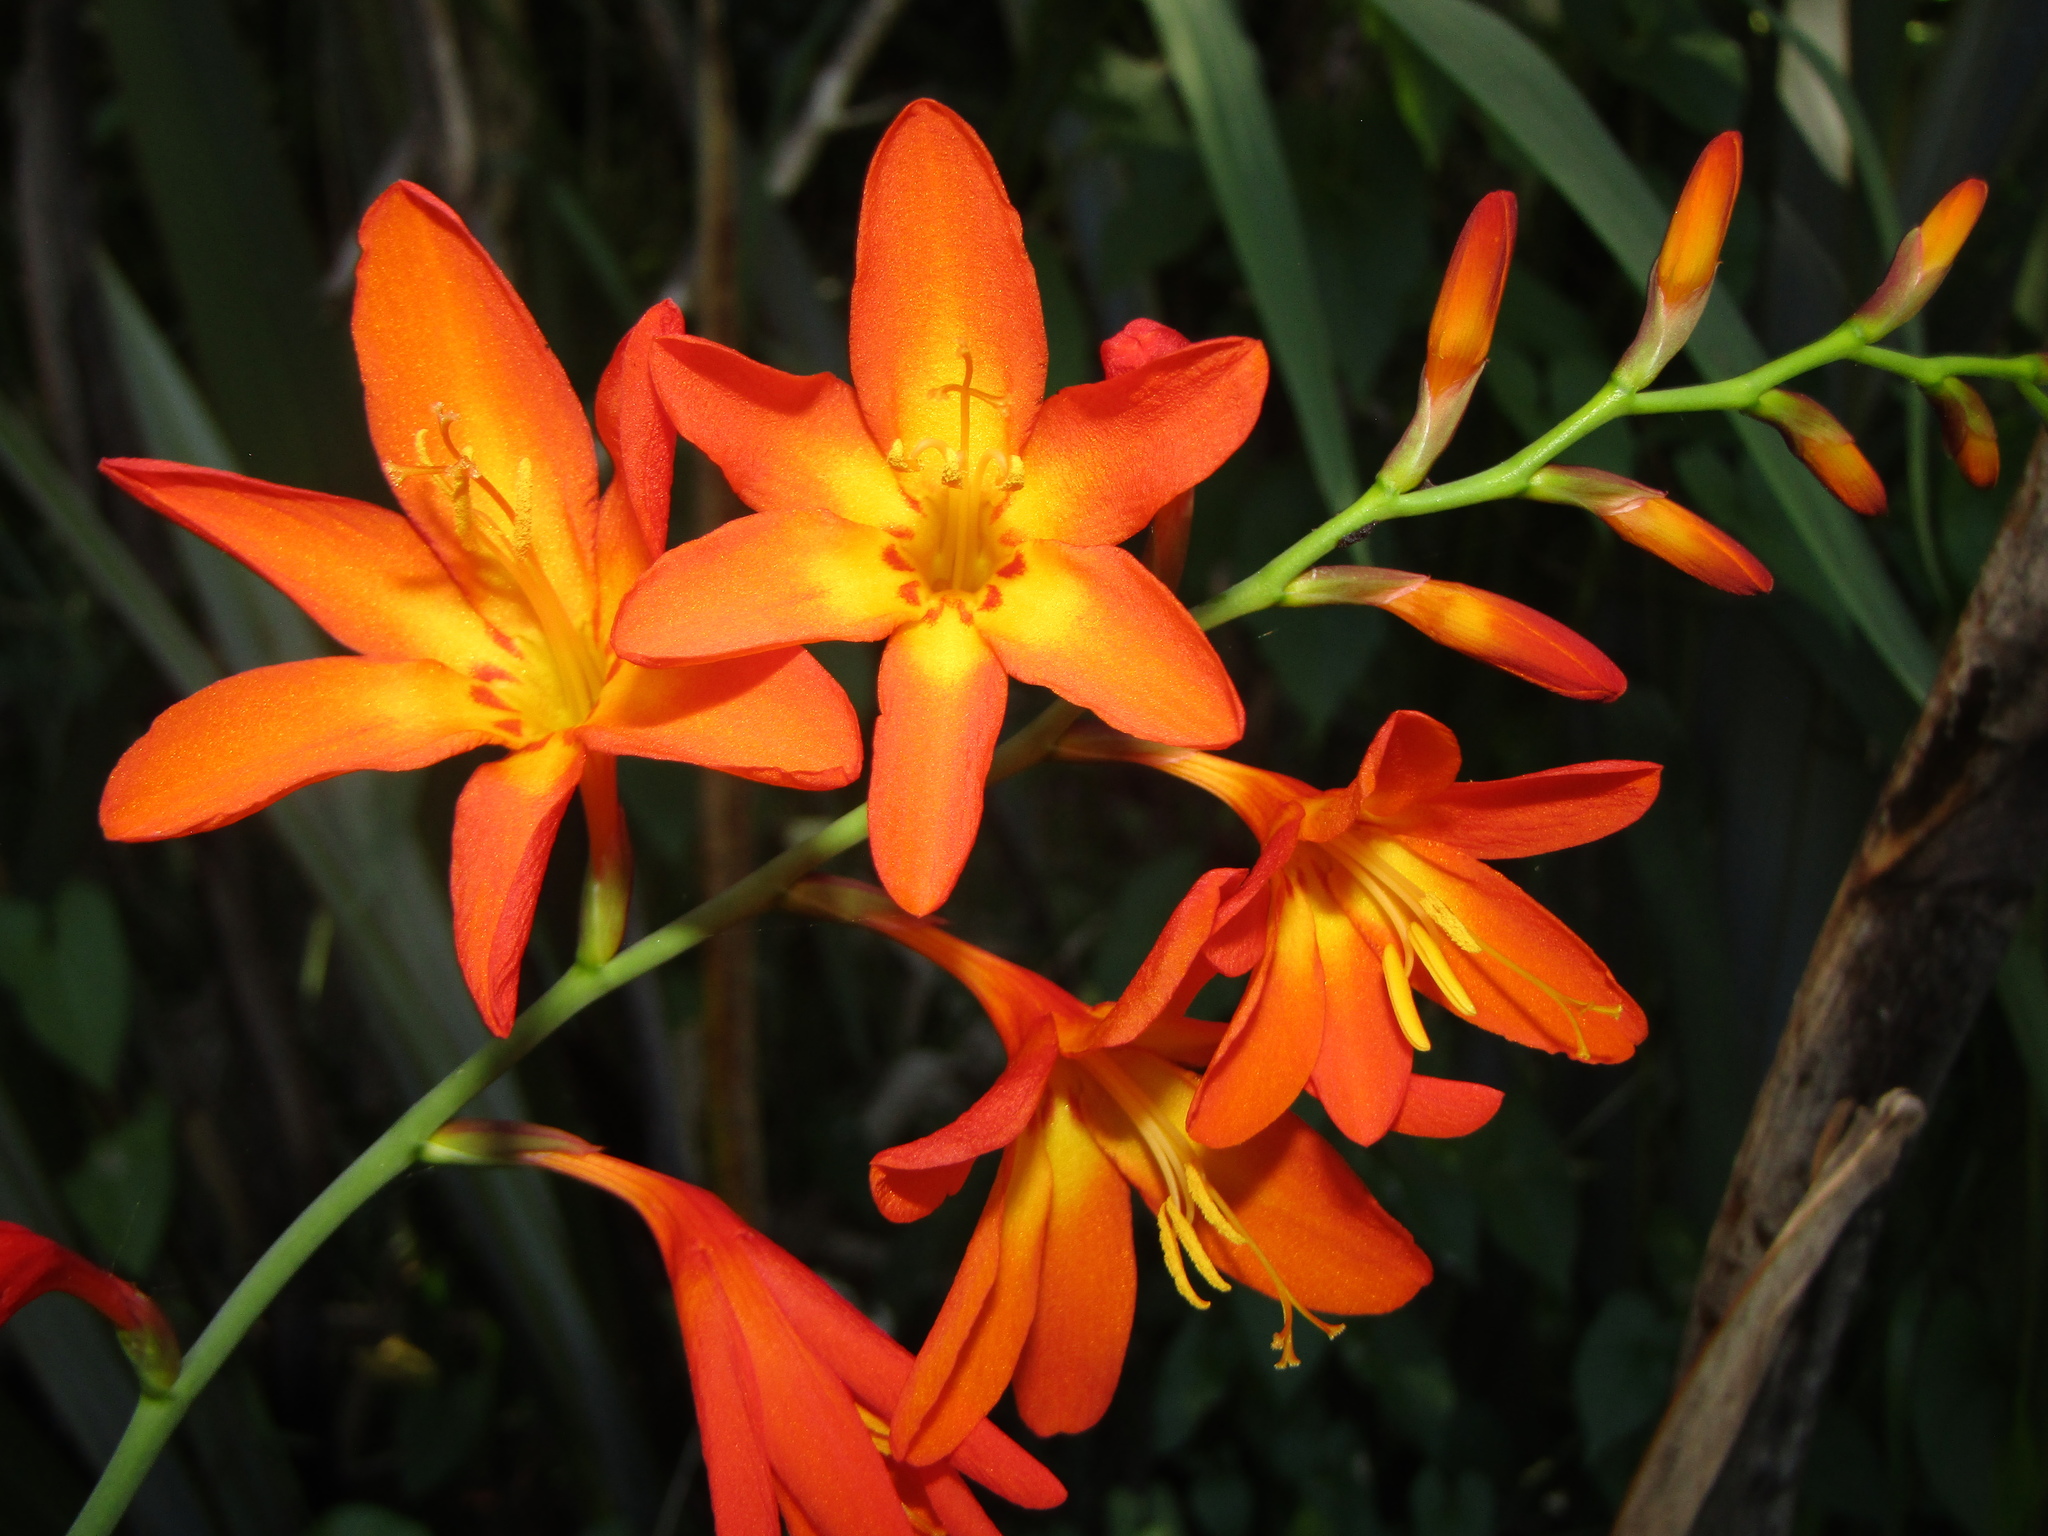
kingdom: Plantae
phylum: Tracheophyta
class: Liliopsida
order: Asparagales
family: Iridaceae
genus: Crocosmia
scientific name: Crocosmia crocosmiiflora
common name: Montbretia
